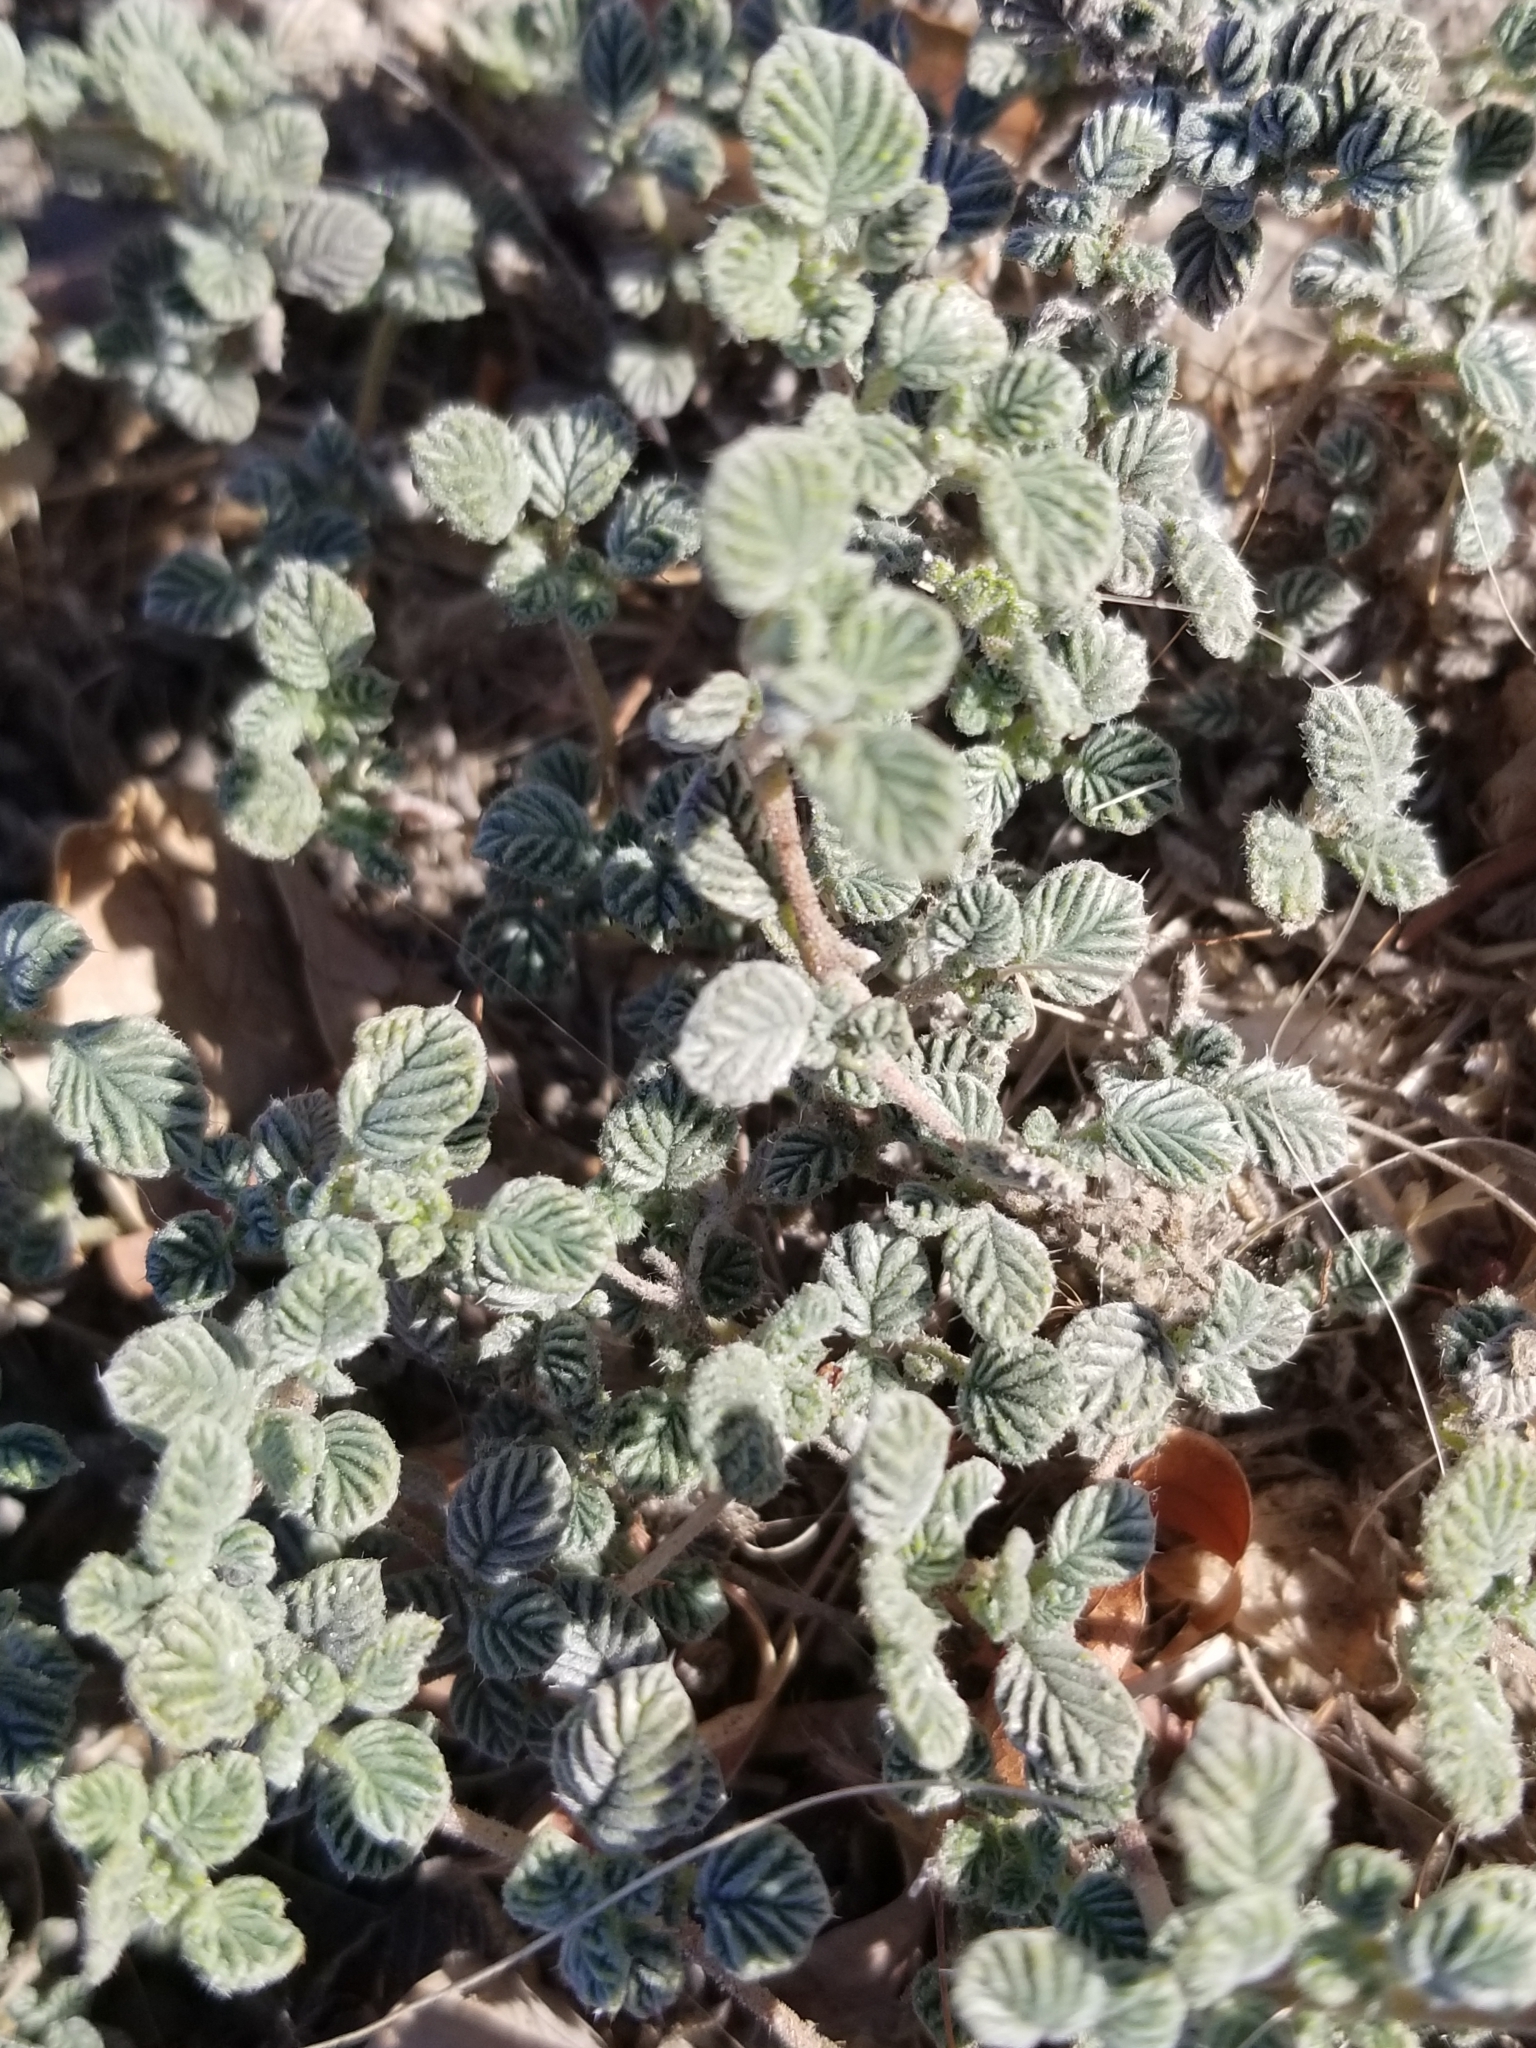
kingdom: Plantae
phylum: Tracheophyta
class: Magnoliopsida
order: Boraginales
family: Ehretiaceae
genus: Tiquilia
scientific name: Tiquilia plicata
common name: Fan-leaf tiquilia
